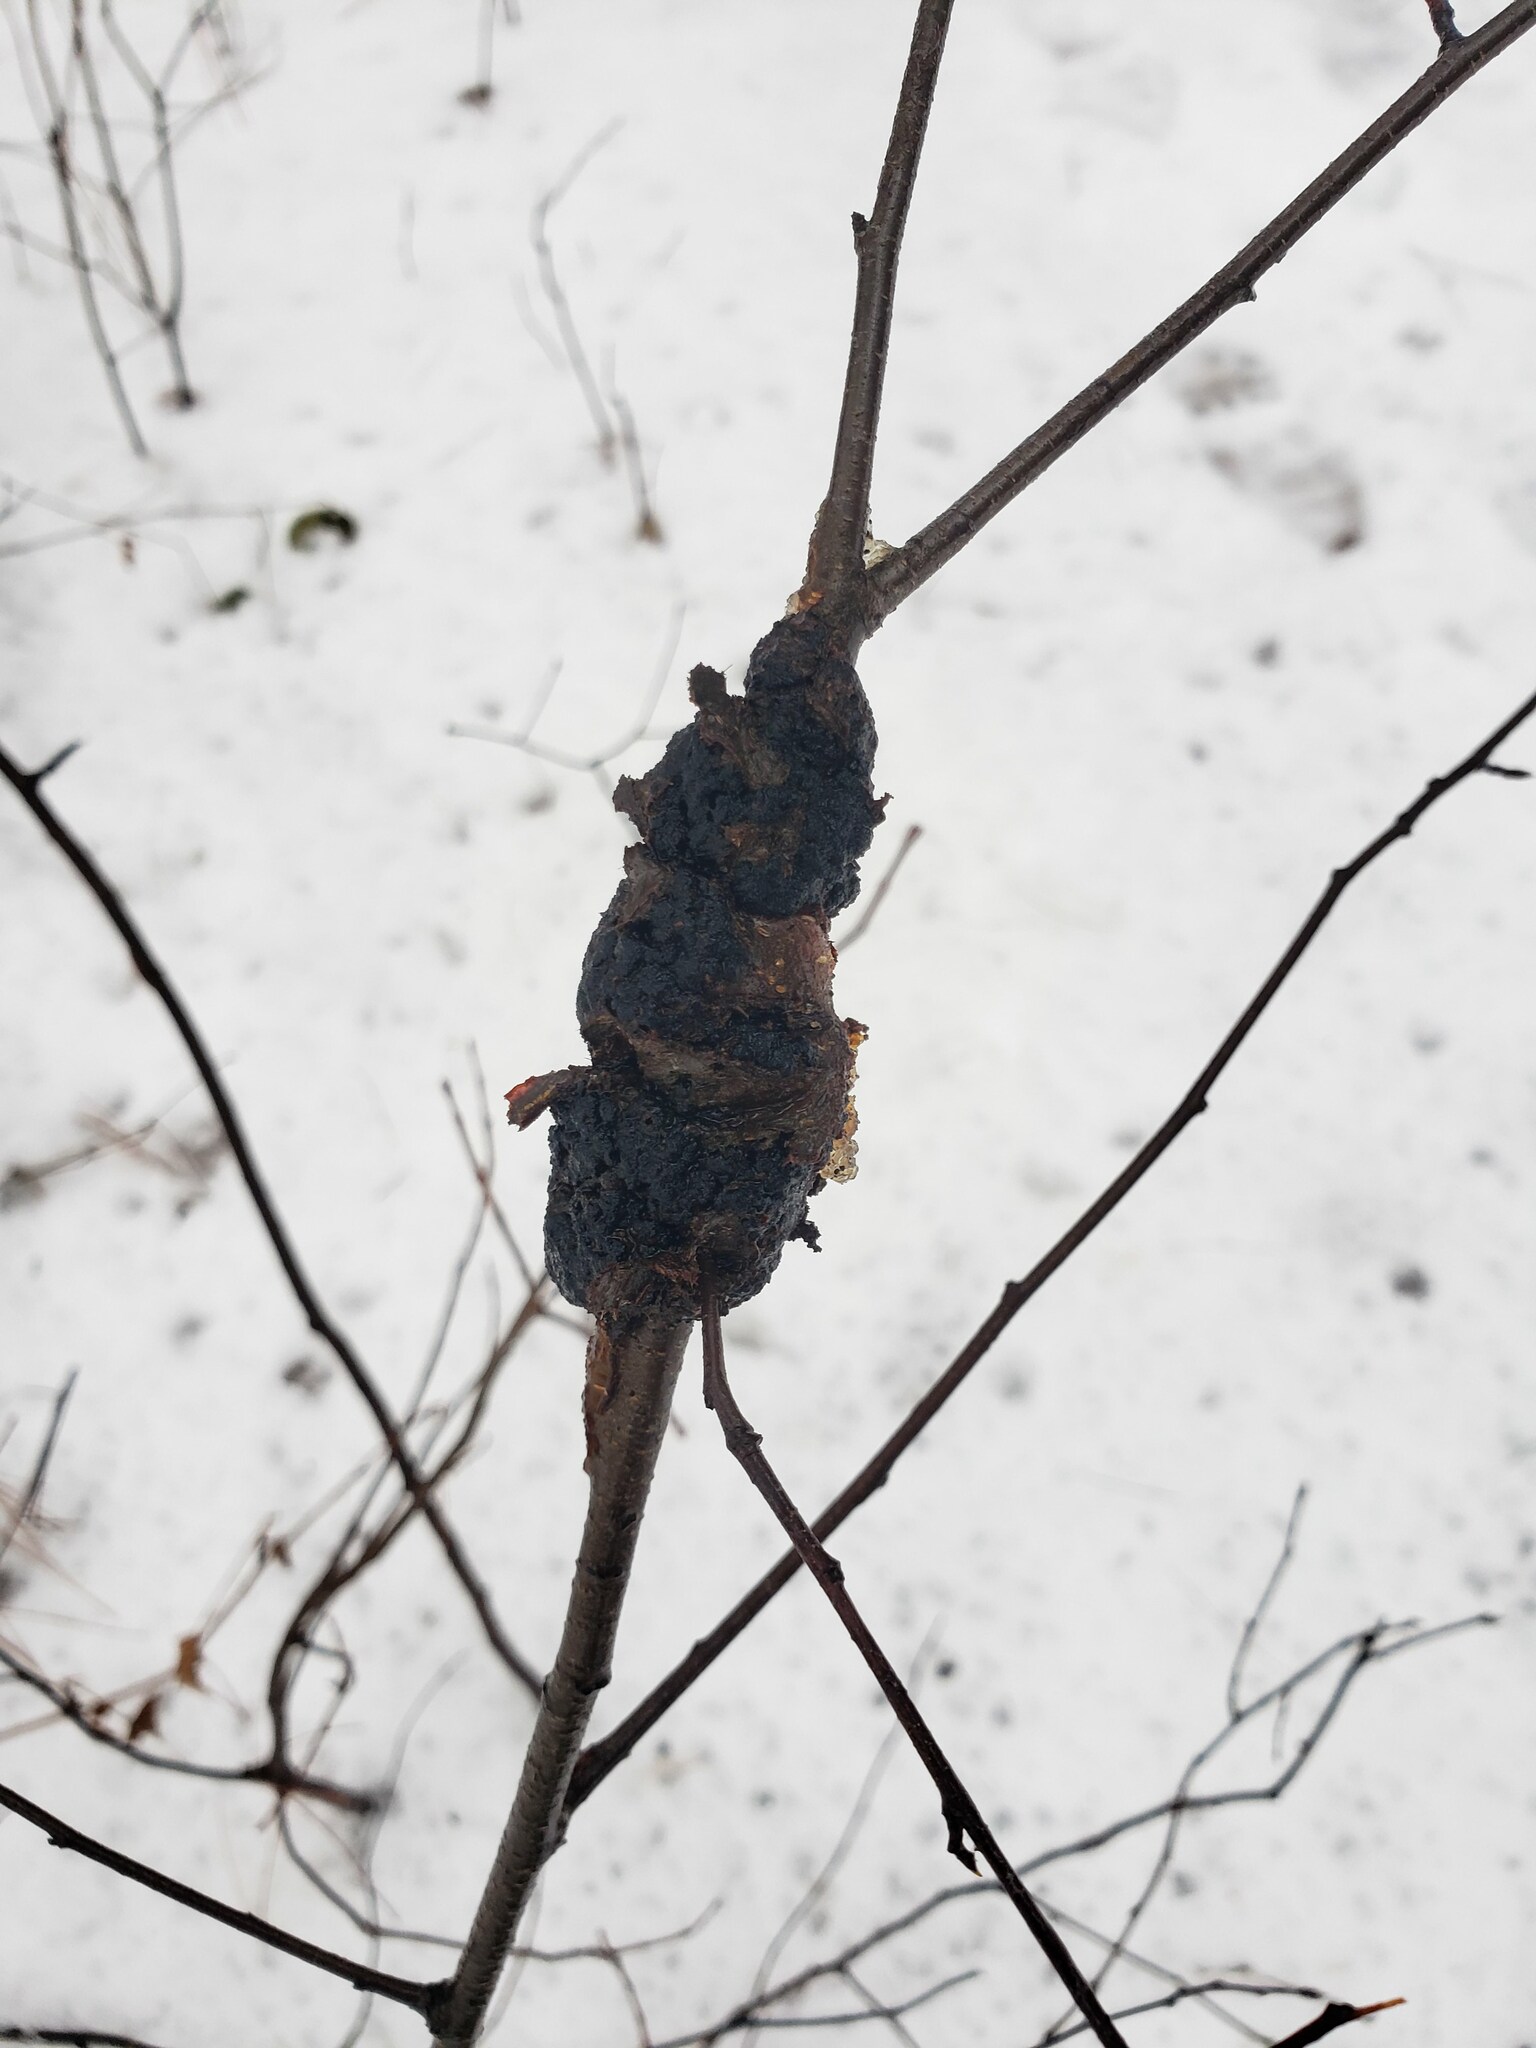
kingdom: Fungi
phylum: Ascomycota
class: Dothideomycetes
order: Venturiales
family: Venturiaceae
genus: Apiosporina
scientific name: Apiosporina morbosa
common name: Black knot
